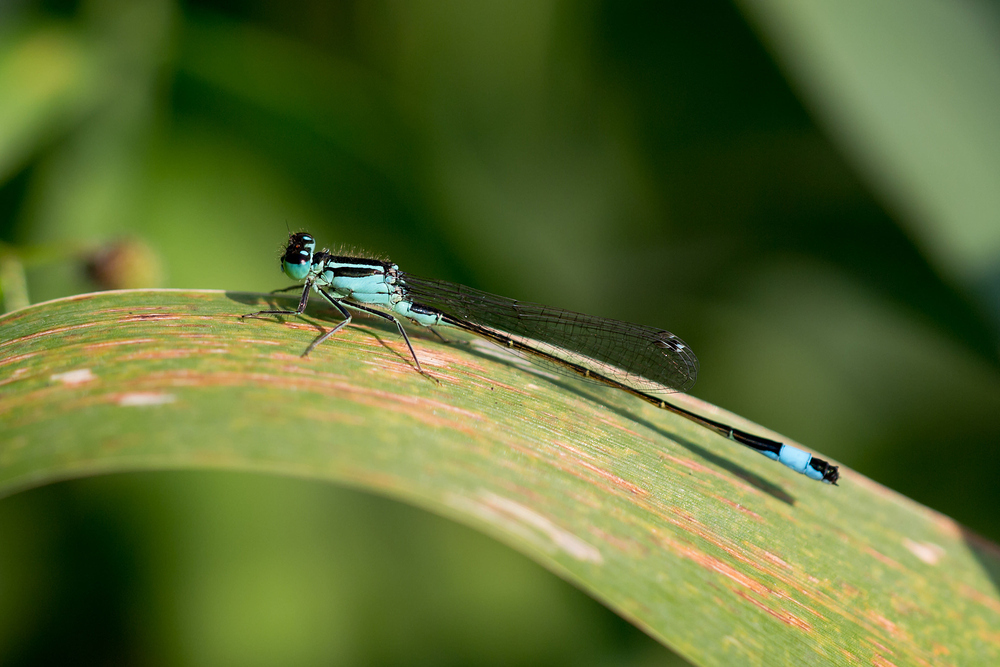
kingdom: Animalia
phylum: Arthropoda
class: Insecta
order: Odonata
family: Coenagrionidae
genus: Ischnura
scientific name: Ischnura elegans
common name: Blue-tailed damselfly
